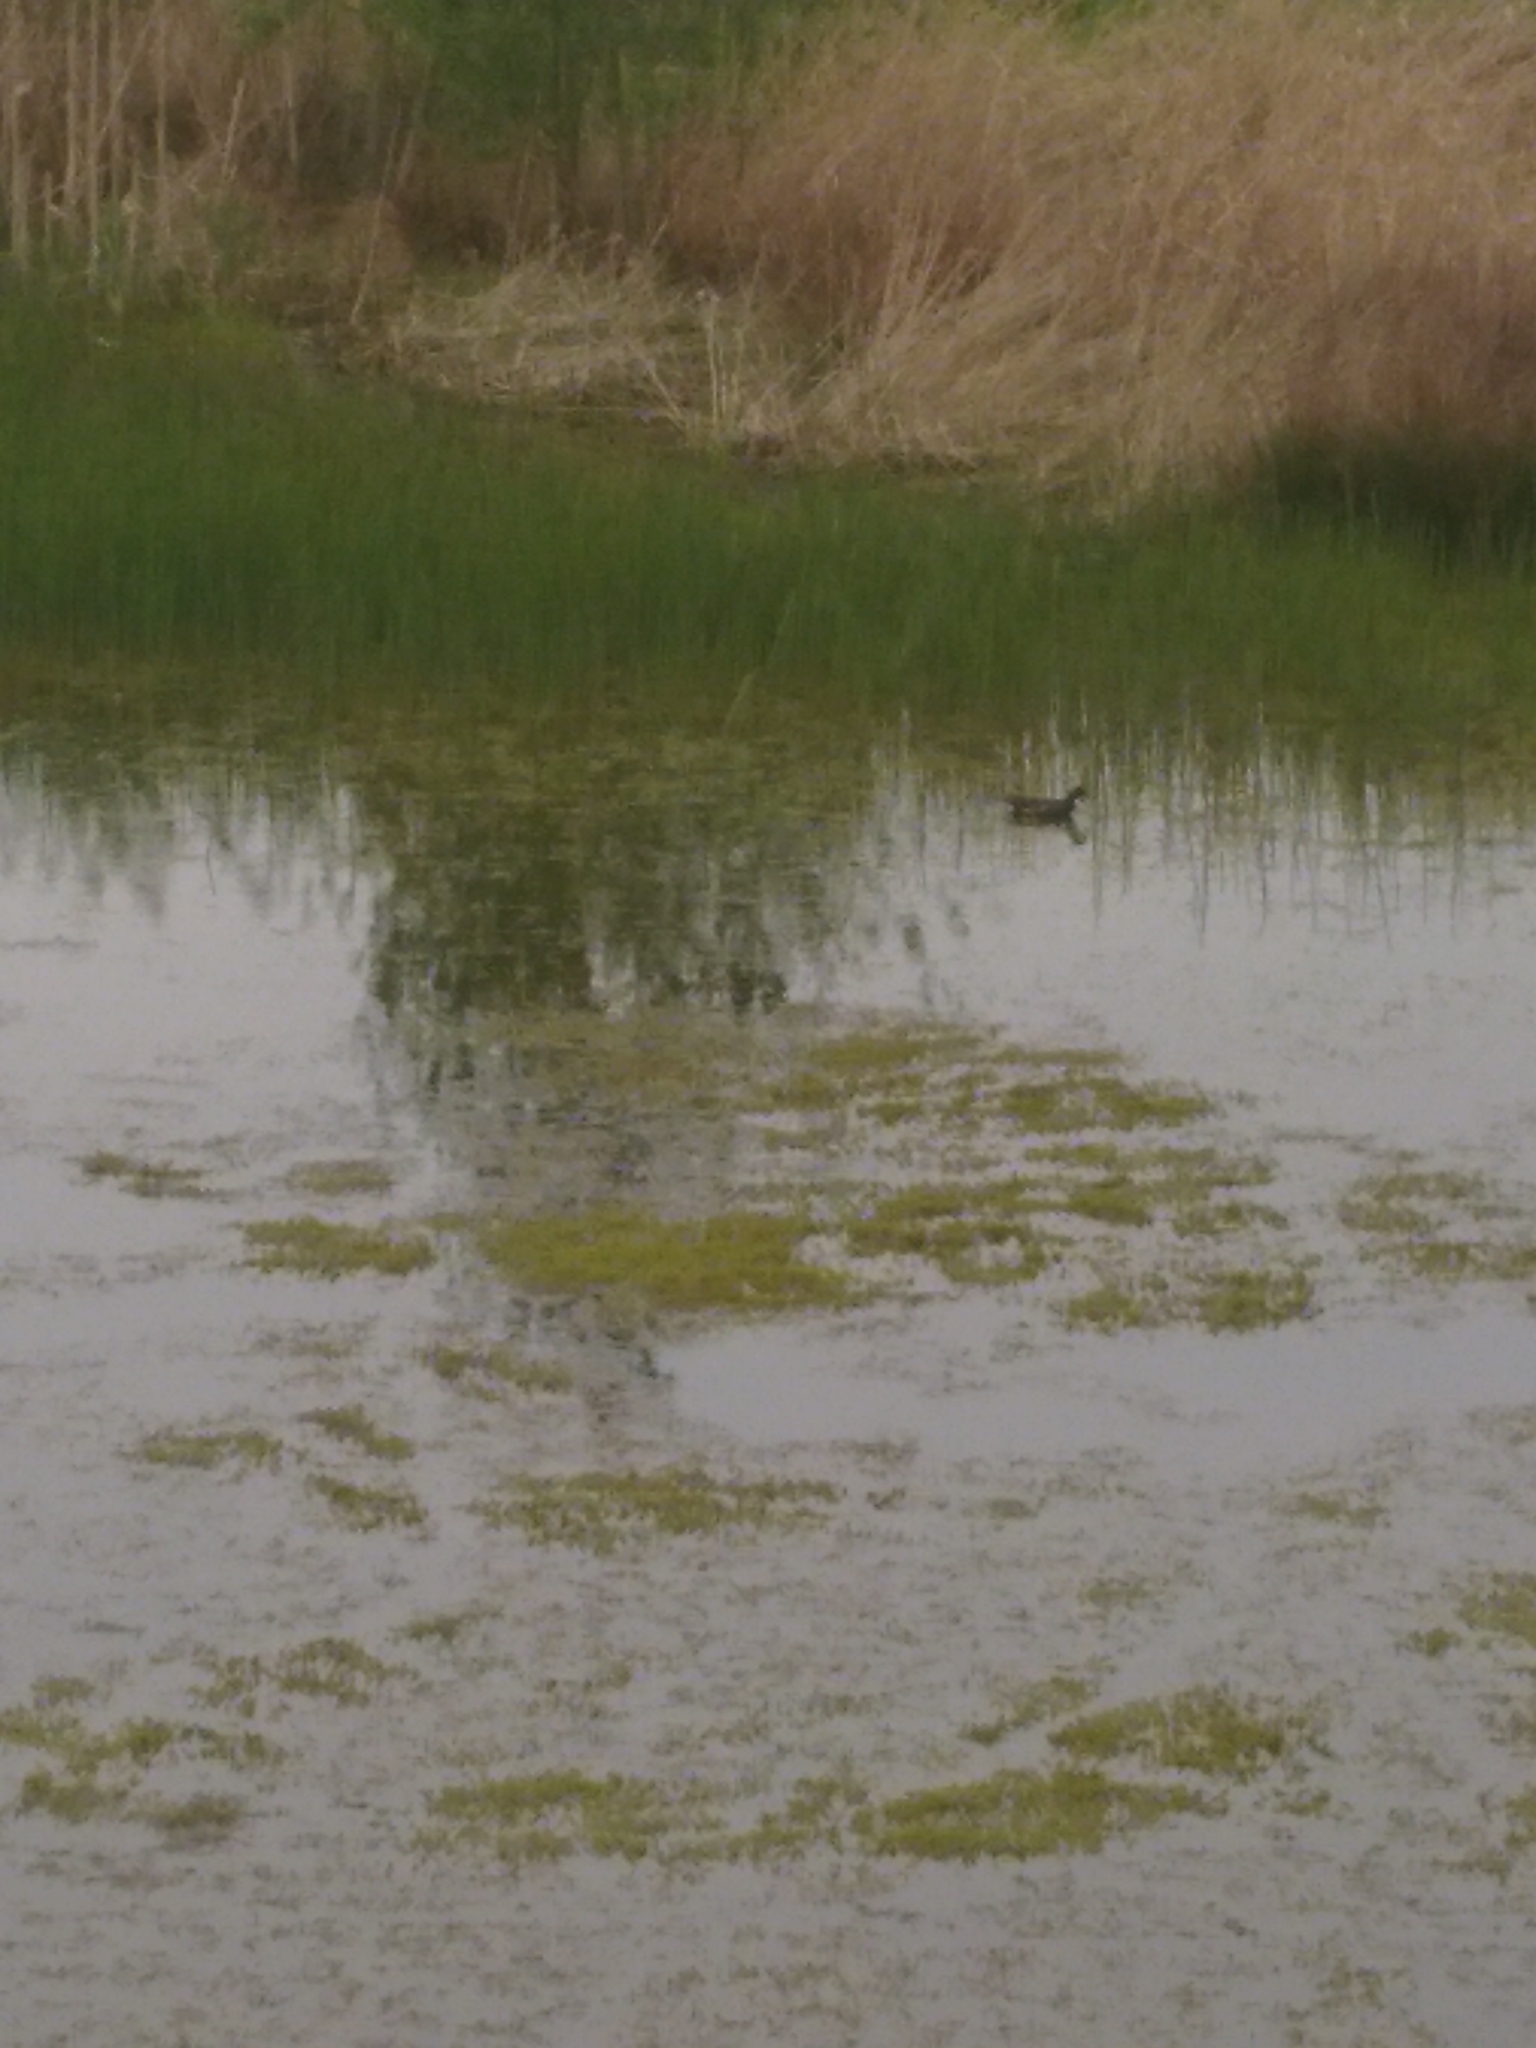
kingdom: Animalia
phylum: Chordata
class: Aves
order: Gruiformes
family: Rallidae
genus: Gallinula
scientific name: Gallinula chloropus
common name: Common moorhen
